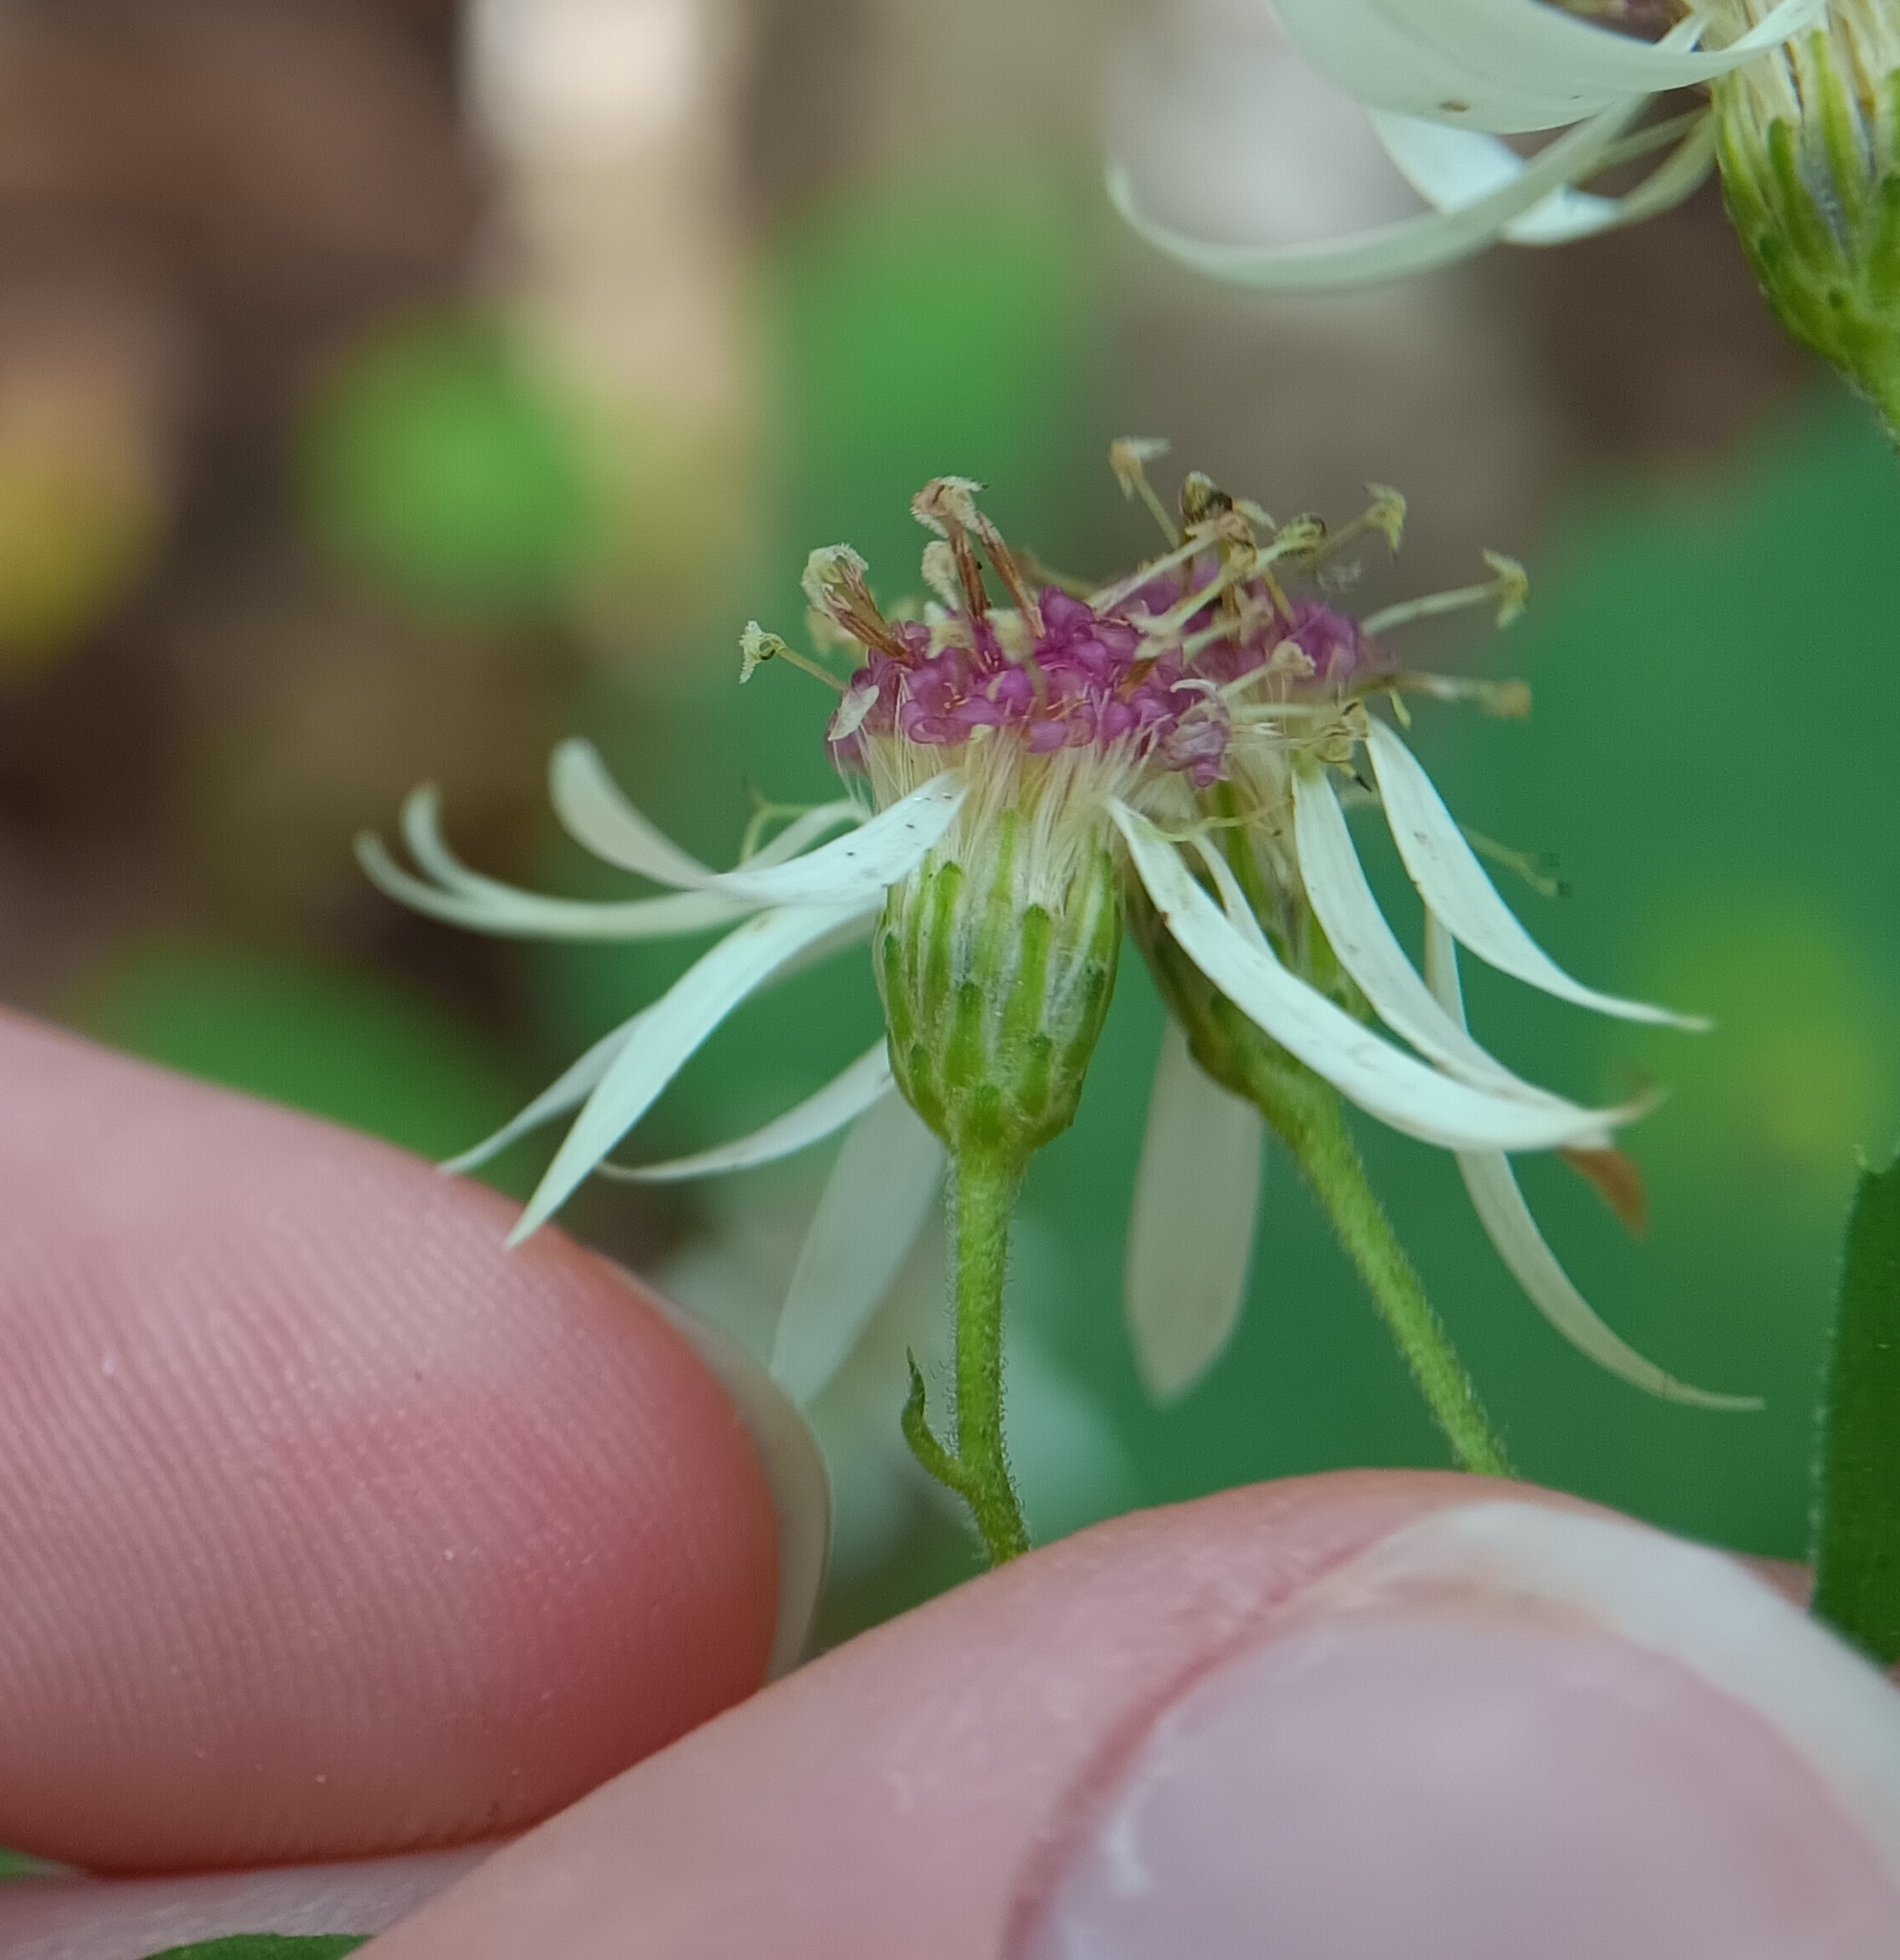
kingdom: Plantae
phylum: Tracheophyta
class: Magnoliopsida
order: Asterales
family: Asteraceae
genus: Eurybia
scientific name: Eurybia divaricata
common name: White wood aster
